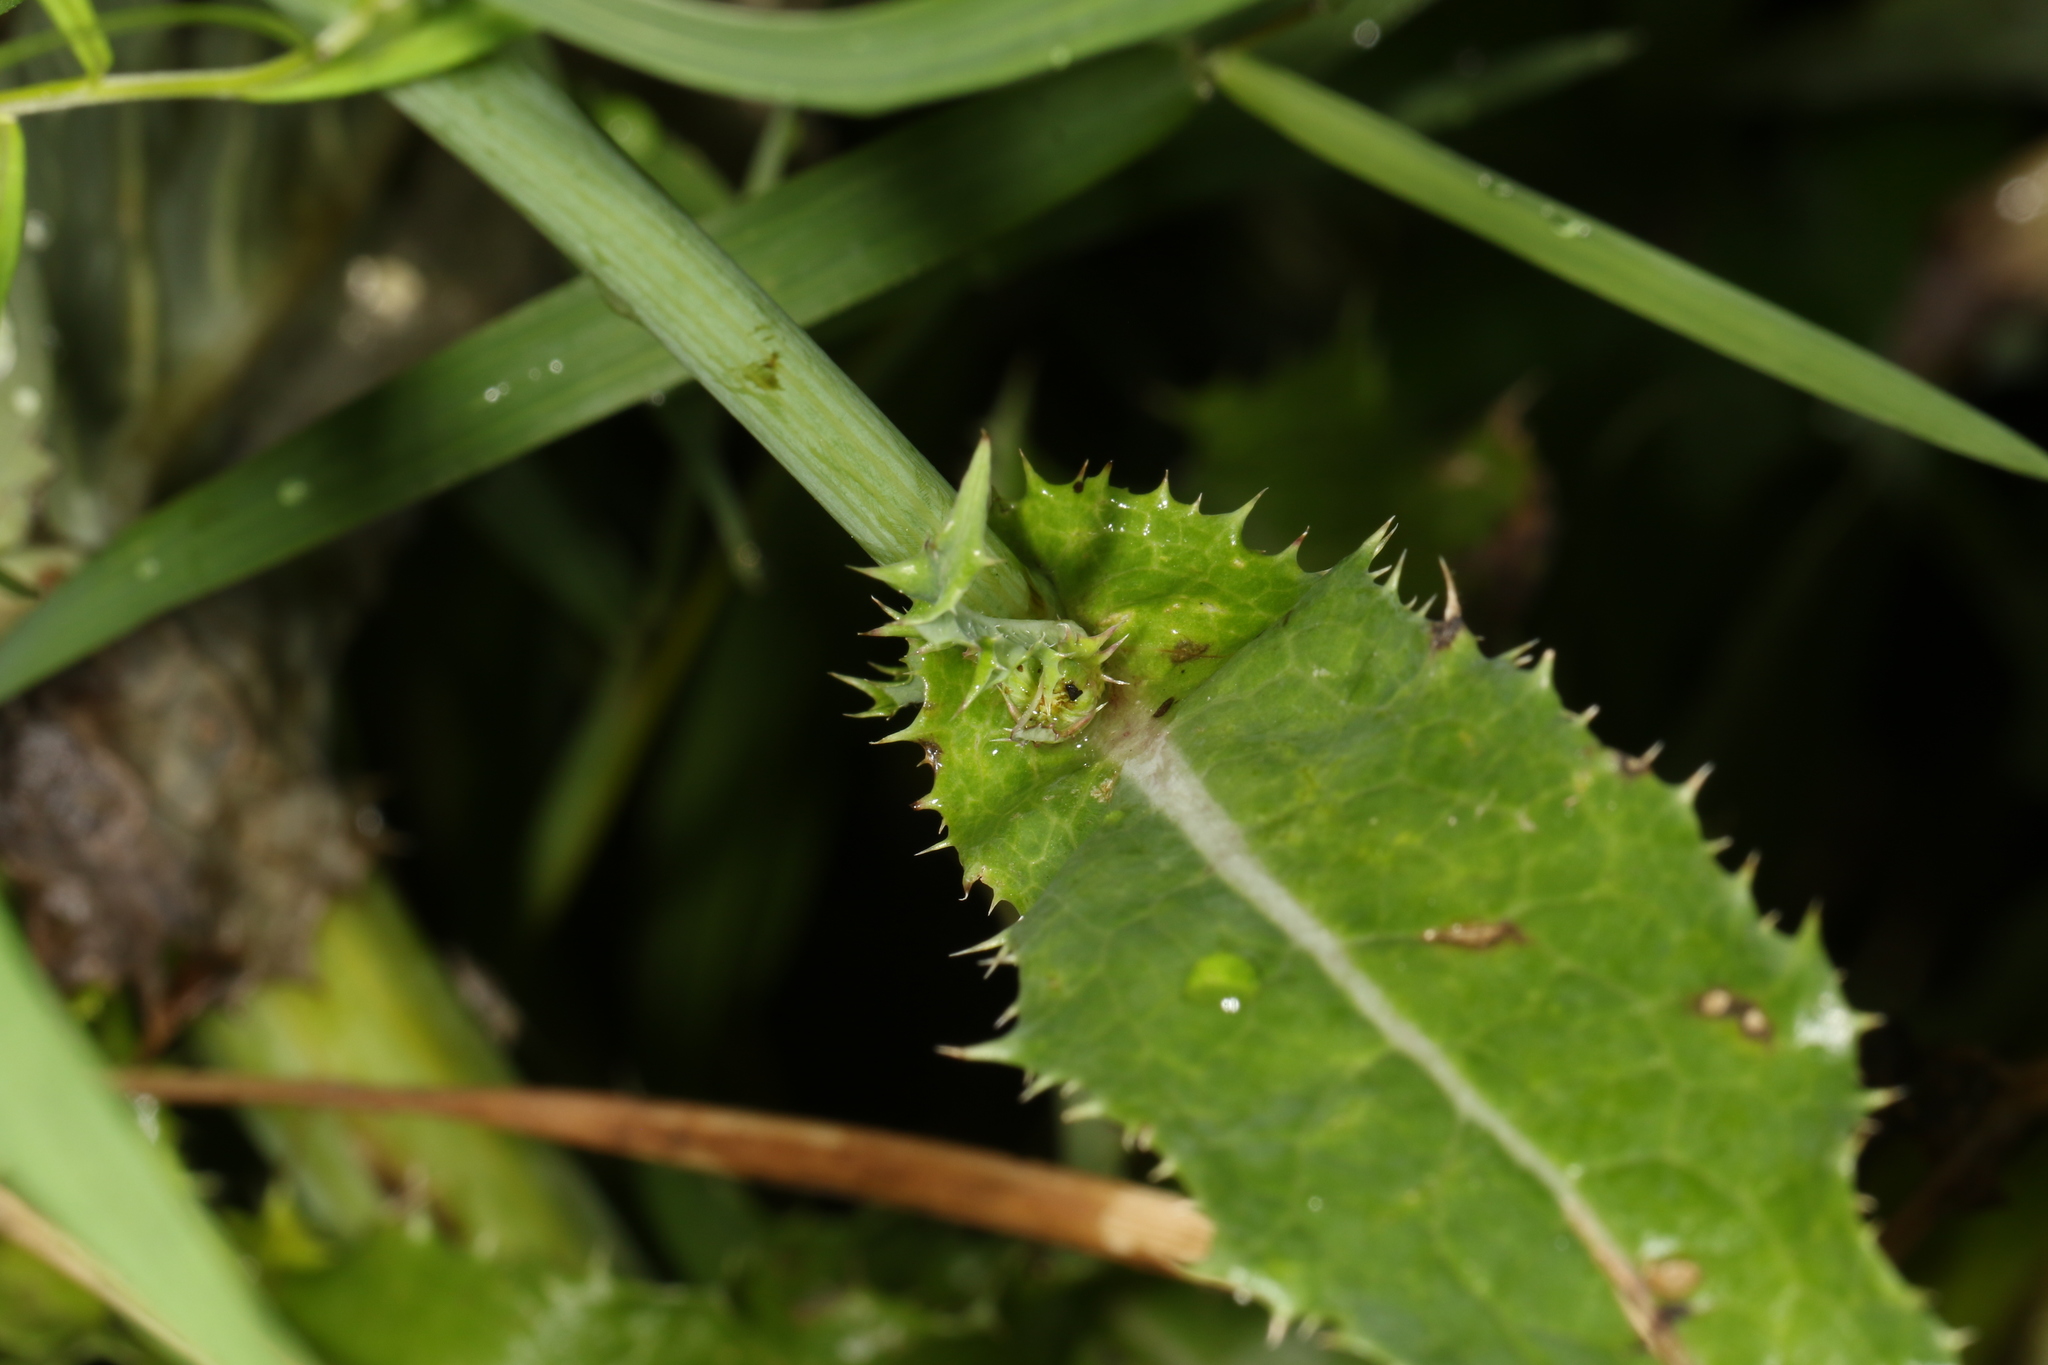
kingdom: Plantae
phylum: Tracheophyta
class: Magnoliopsida
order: Asterales
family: Asteraceae
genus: Sonchus
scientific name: Sonchus asper
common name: Prickly sow-thistle
